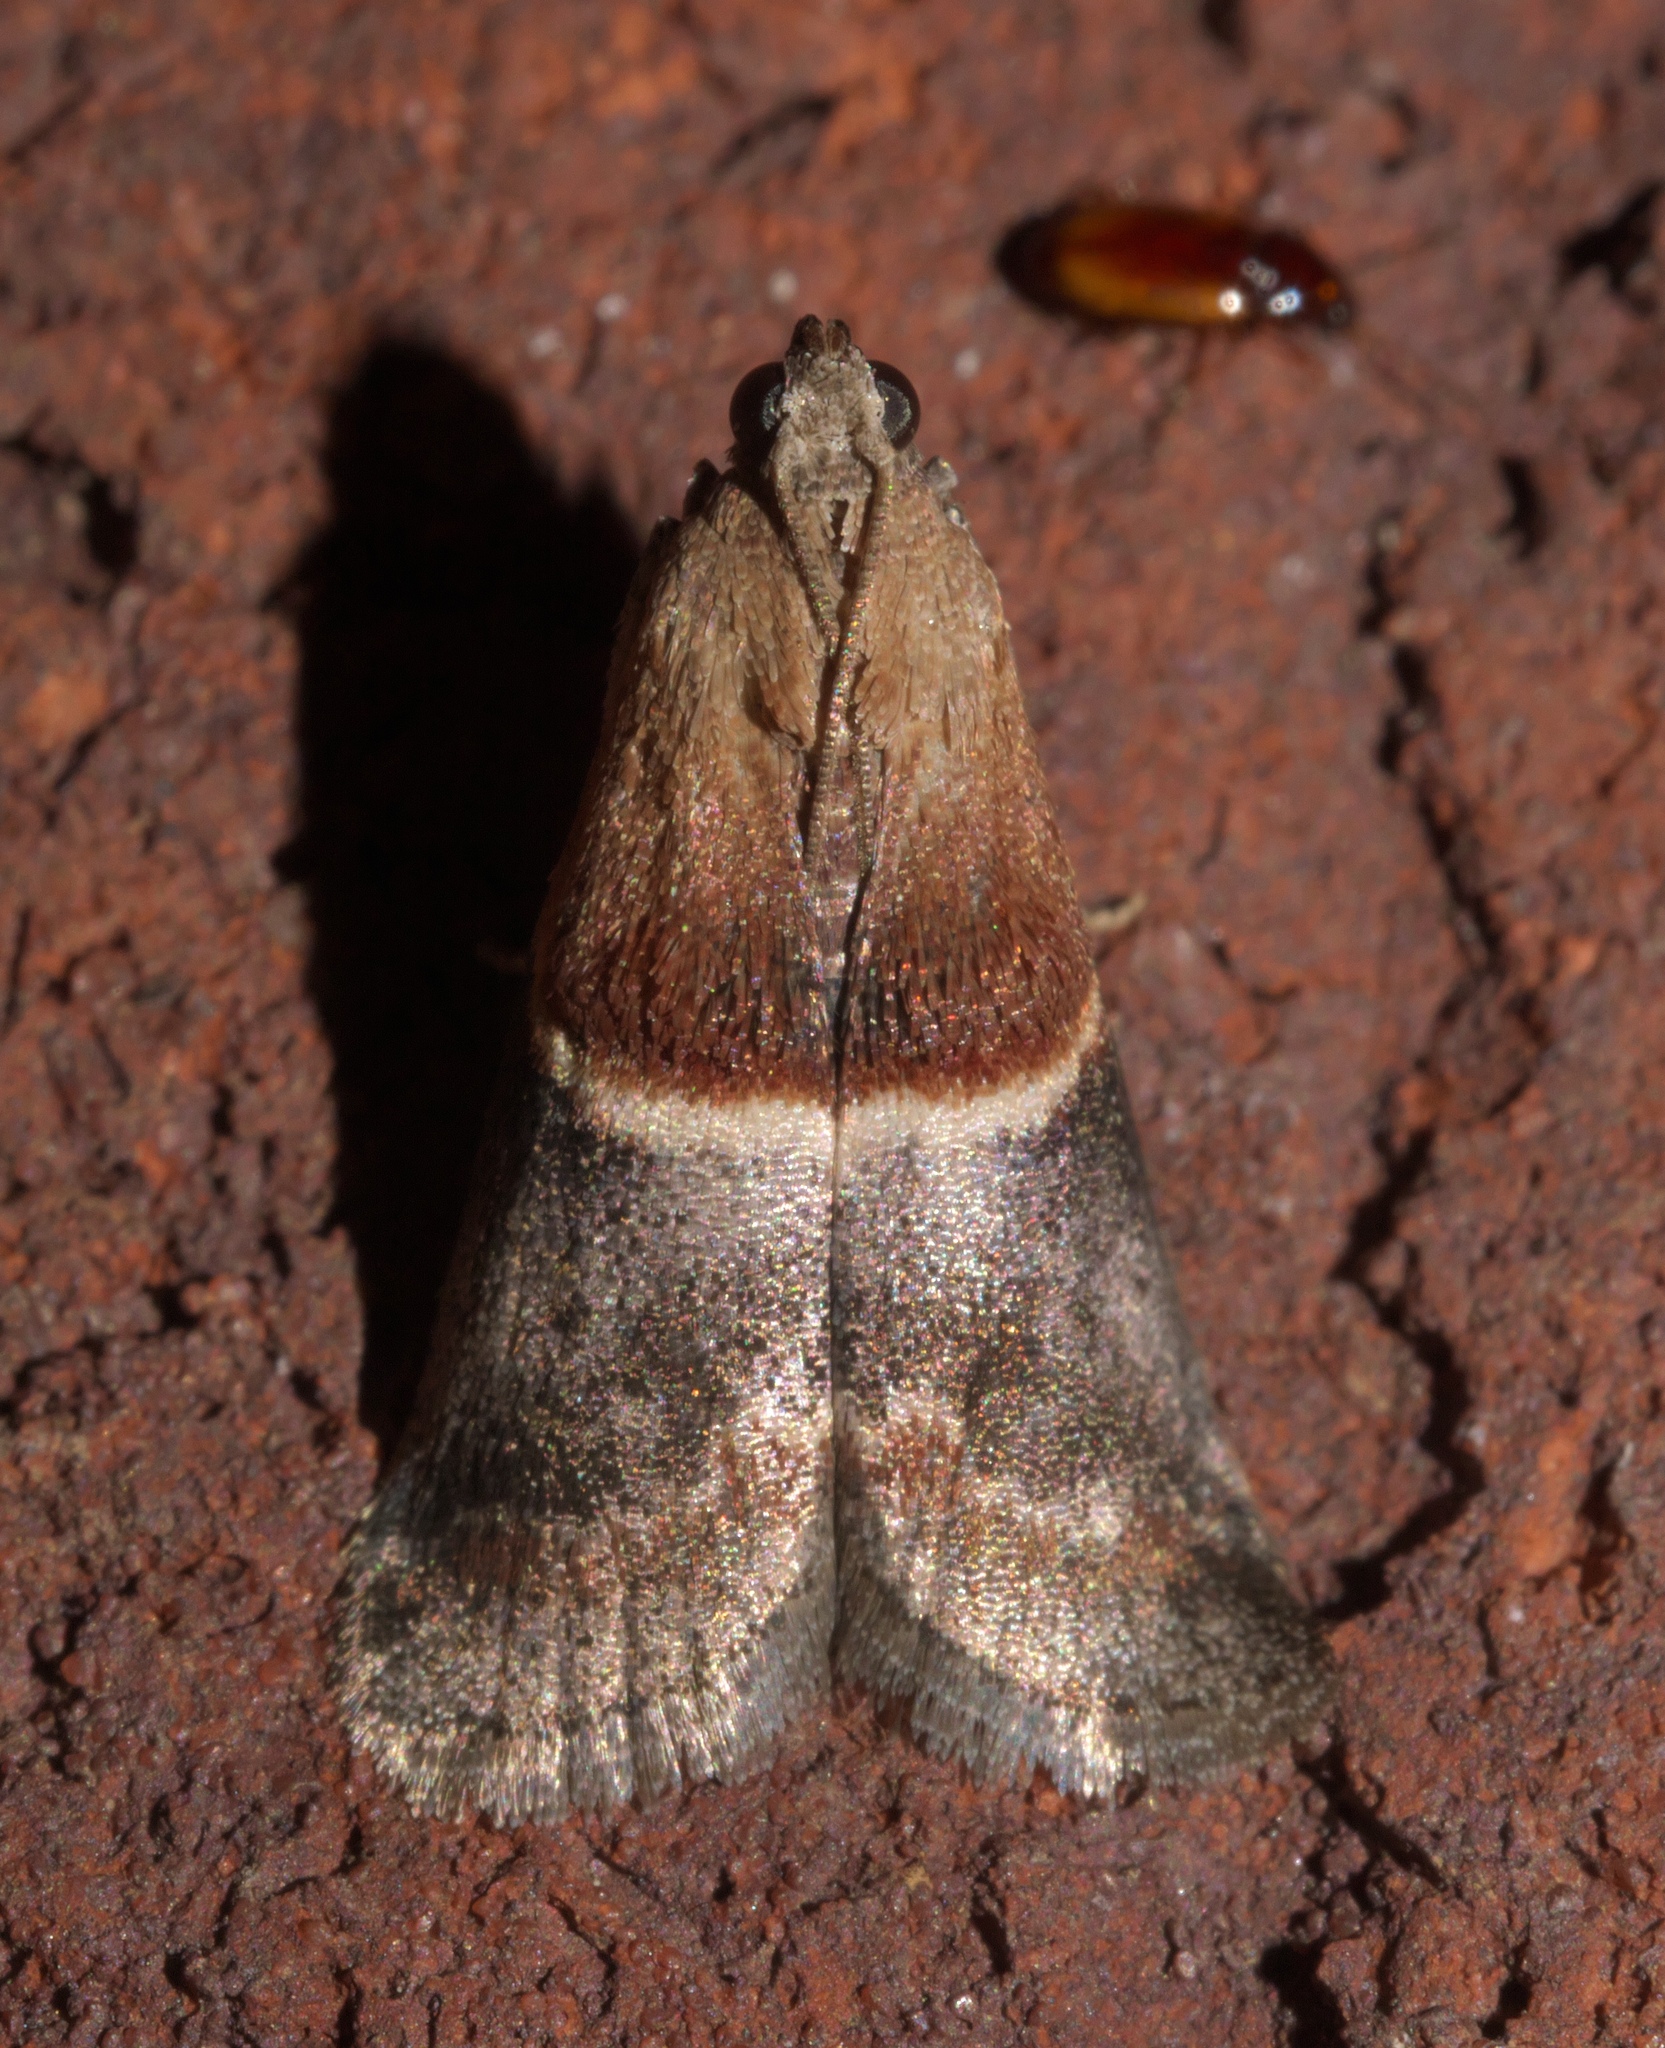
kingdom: Animalia
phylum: Arthropoda
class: Insecta
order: Lepidoptera
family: Pyralidae
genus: Acrobasis
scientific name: Acrobasis demotella
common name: Walnut shoot moth
